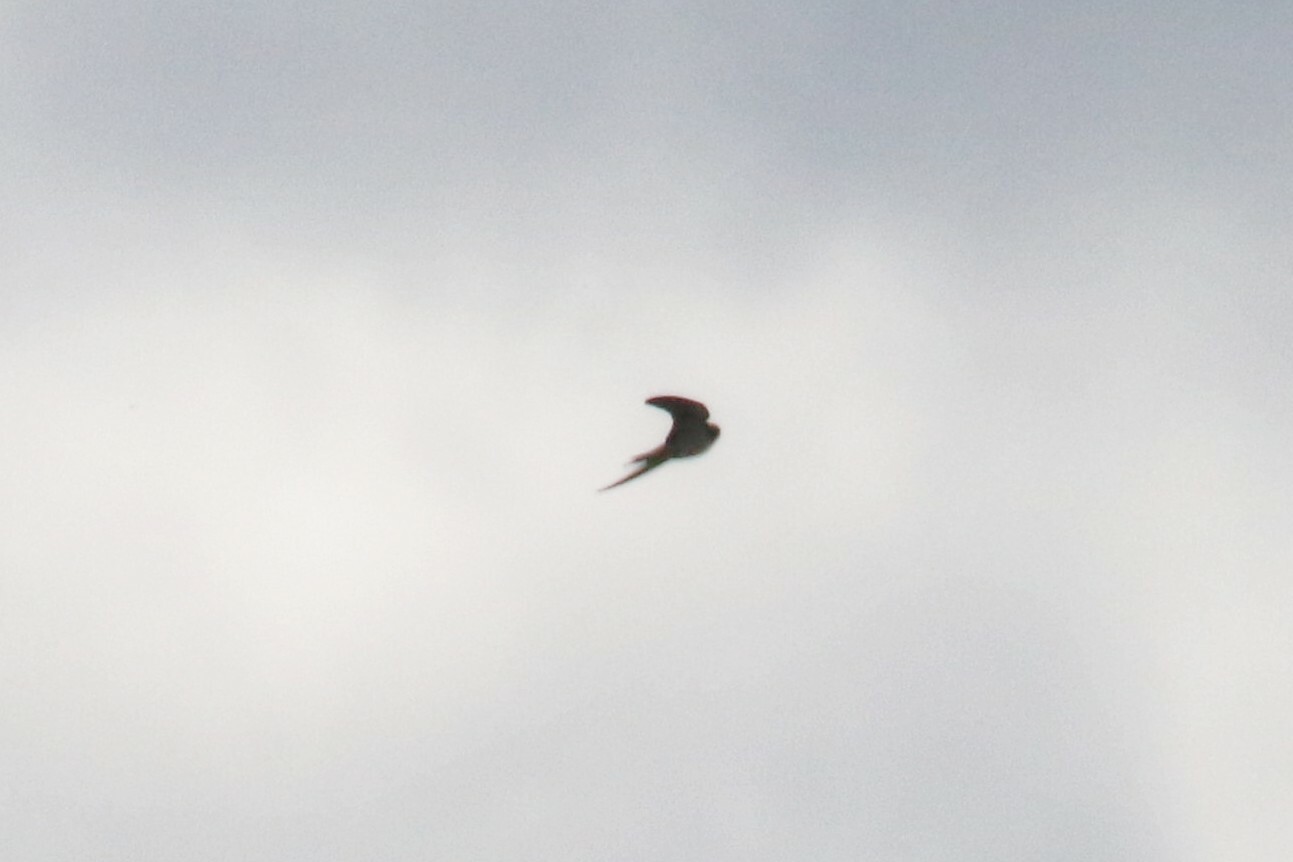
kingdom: Animalia
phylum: Chordata
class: Aves
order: Passeriformes
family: Hirundinidae
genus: Hirundo
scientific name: Hirundo rustica
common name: Barn swallow
